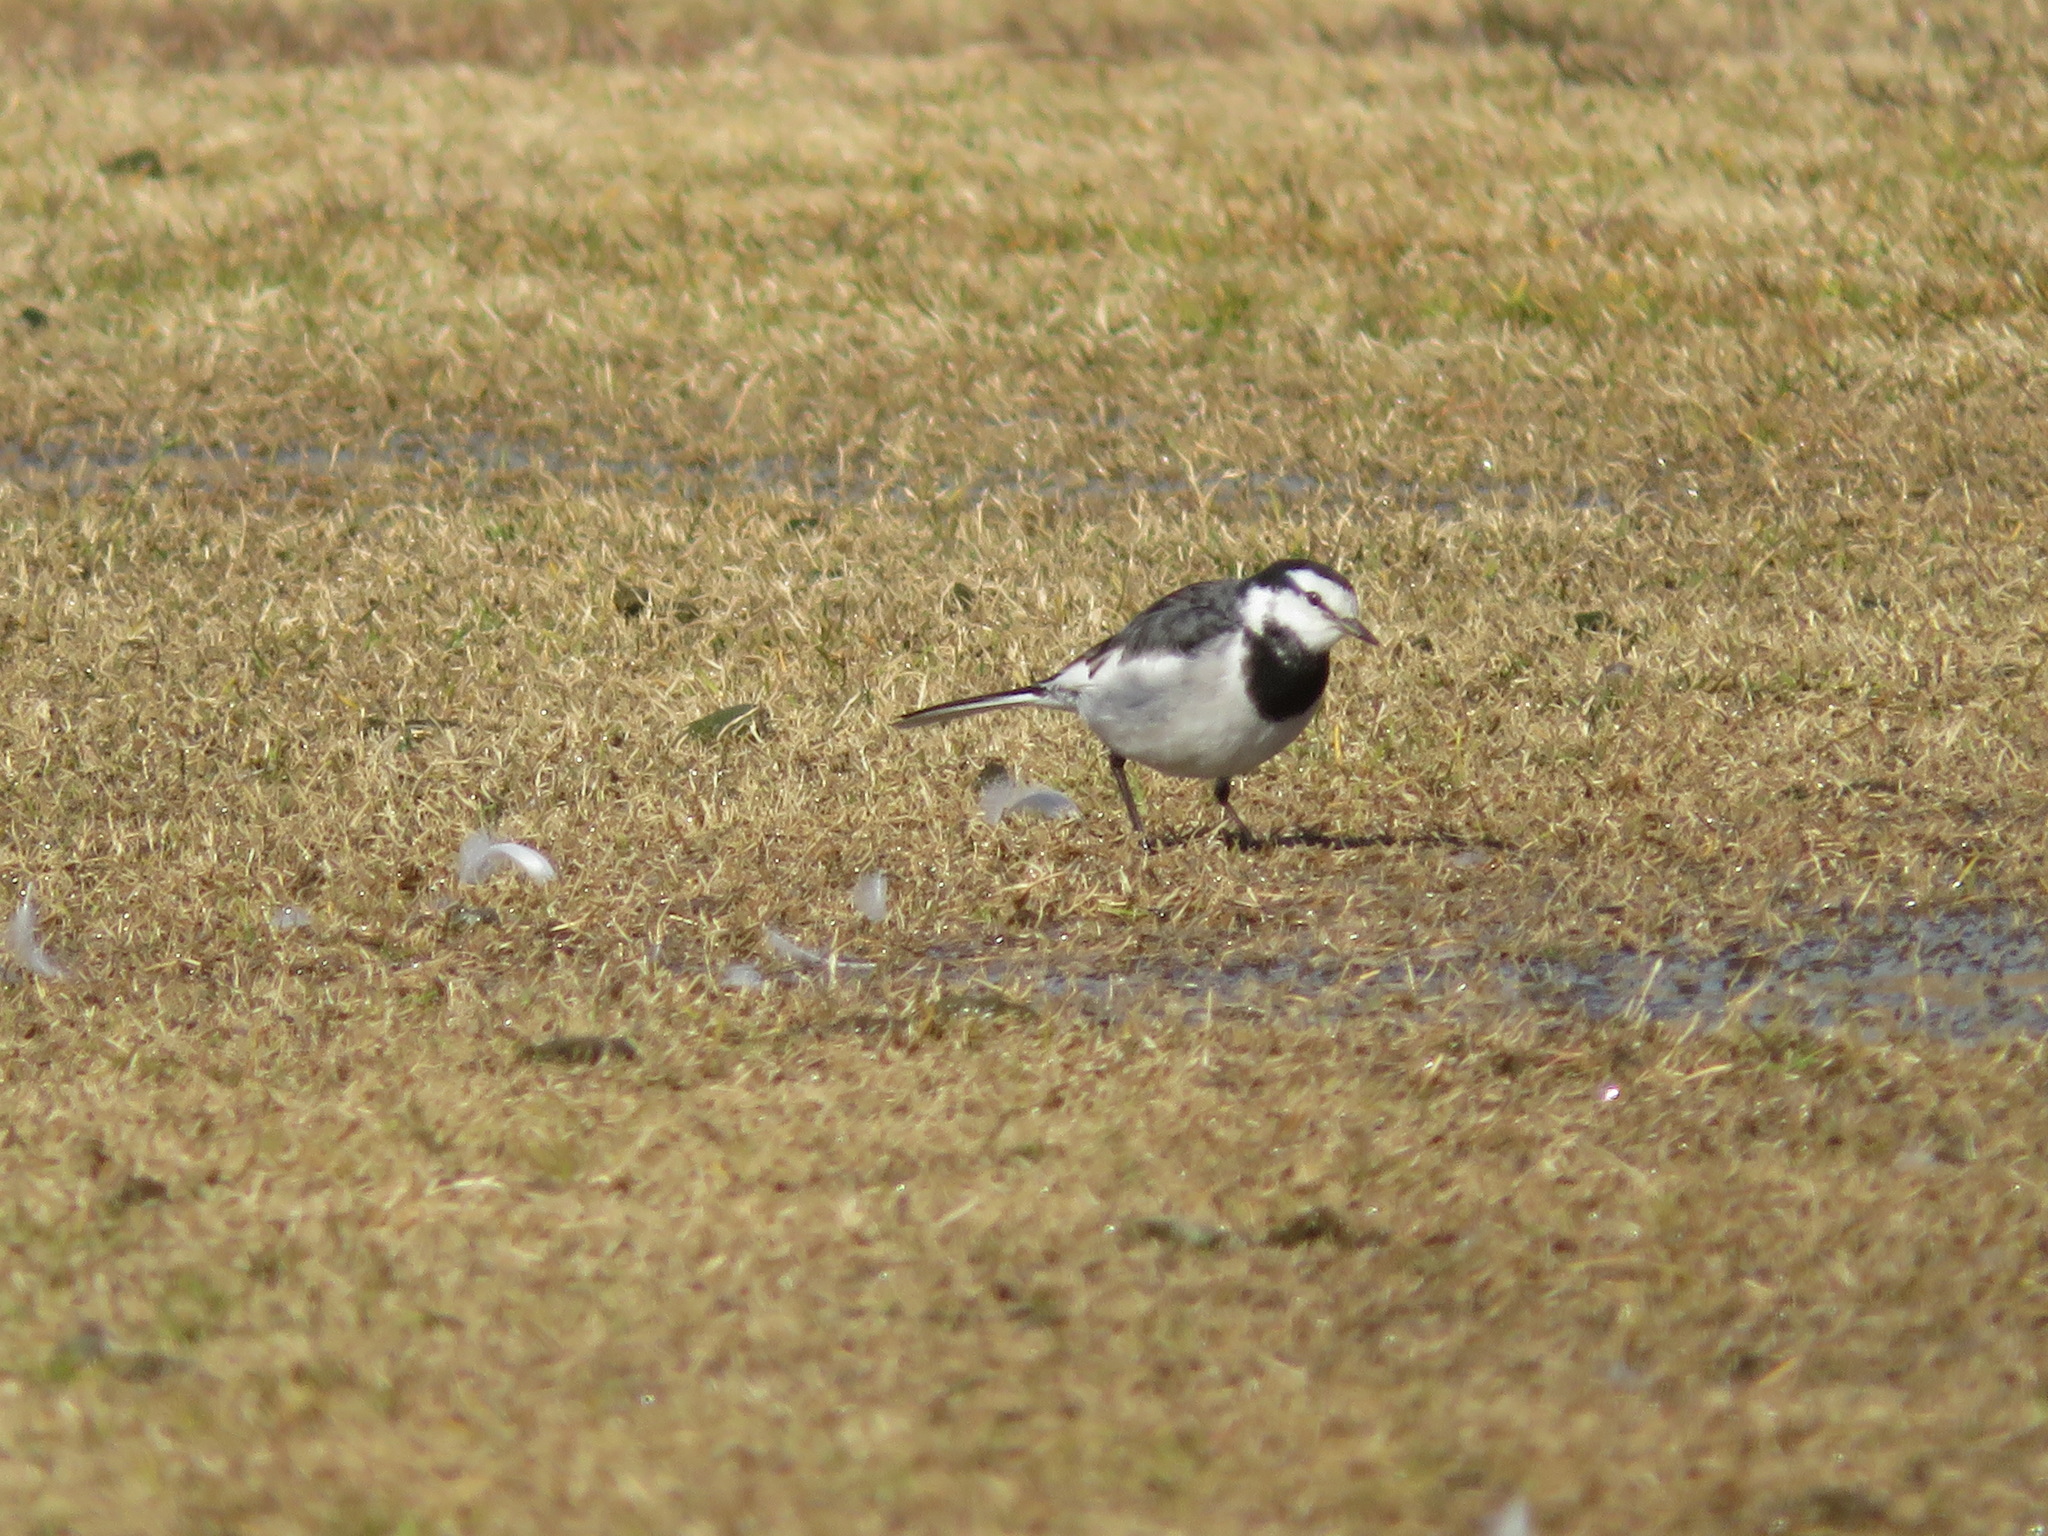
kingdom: Animalia
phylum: Chordata
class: Aves
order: Passeriformes
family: Motacillidae
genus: Motacilla
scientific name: Motacilla alba
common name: White wagtail
